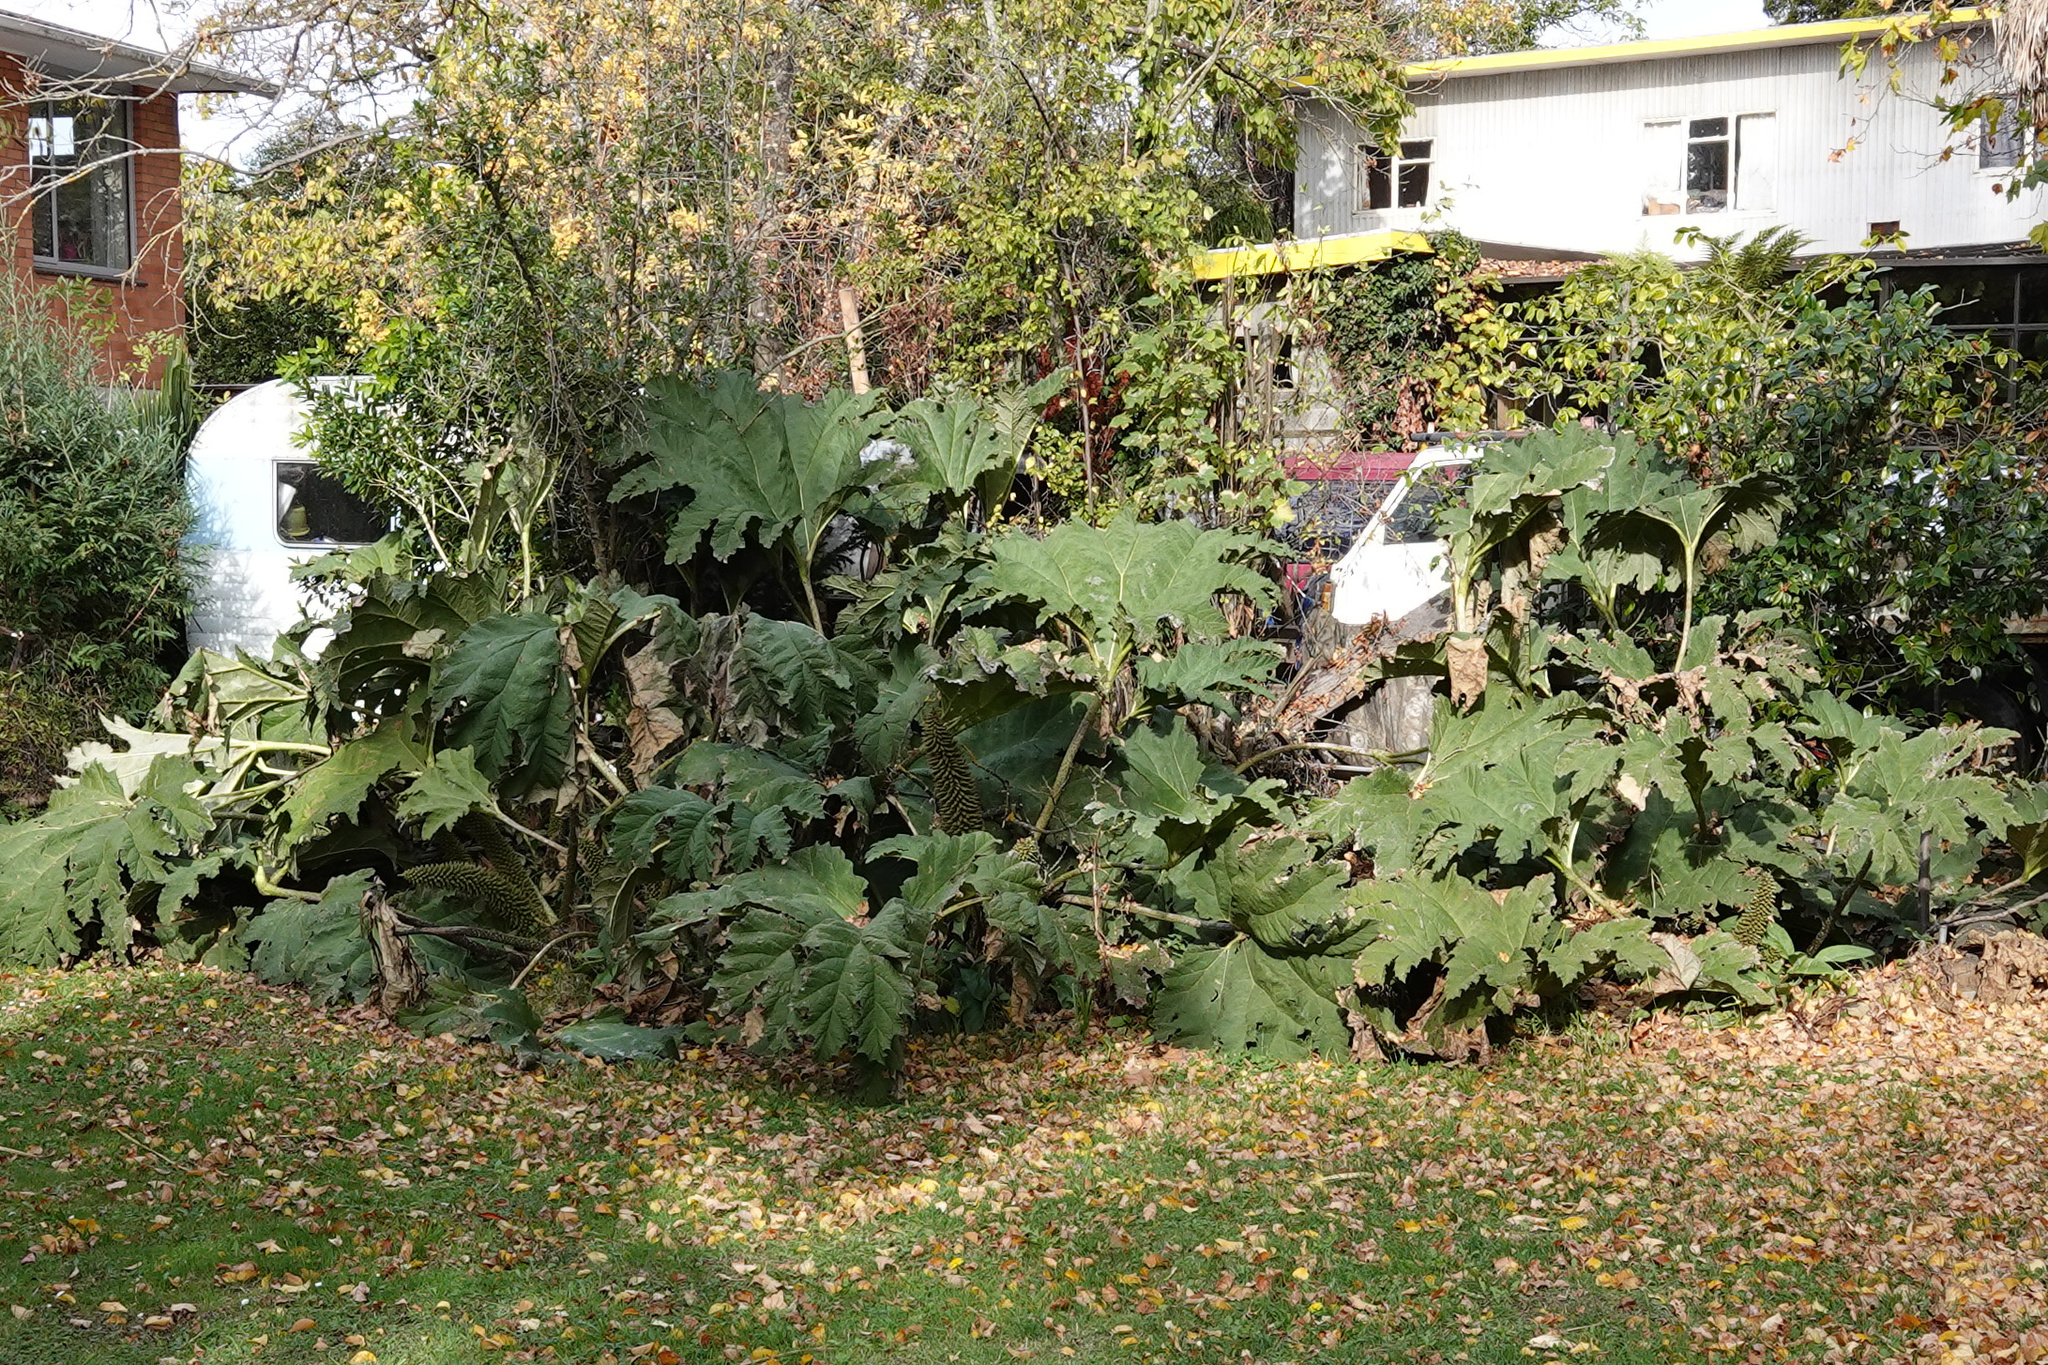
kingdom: Plantae
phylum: Tracheophyta
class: Magnoliopsida
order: Gunnerales
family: Gunneraceae
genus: Gunnera
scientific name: Gunnera tinctoria
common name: Giant-rhubarb
